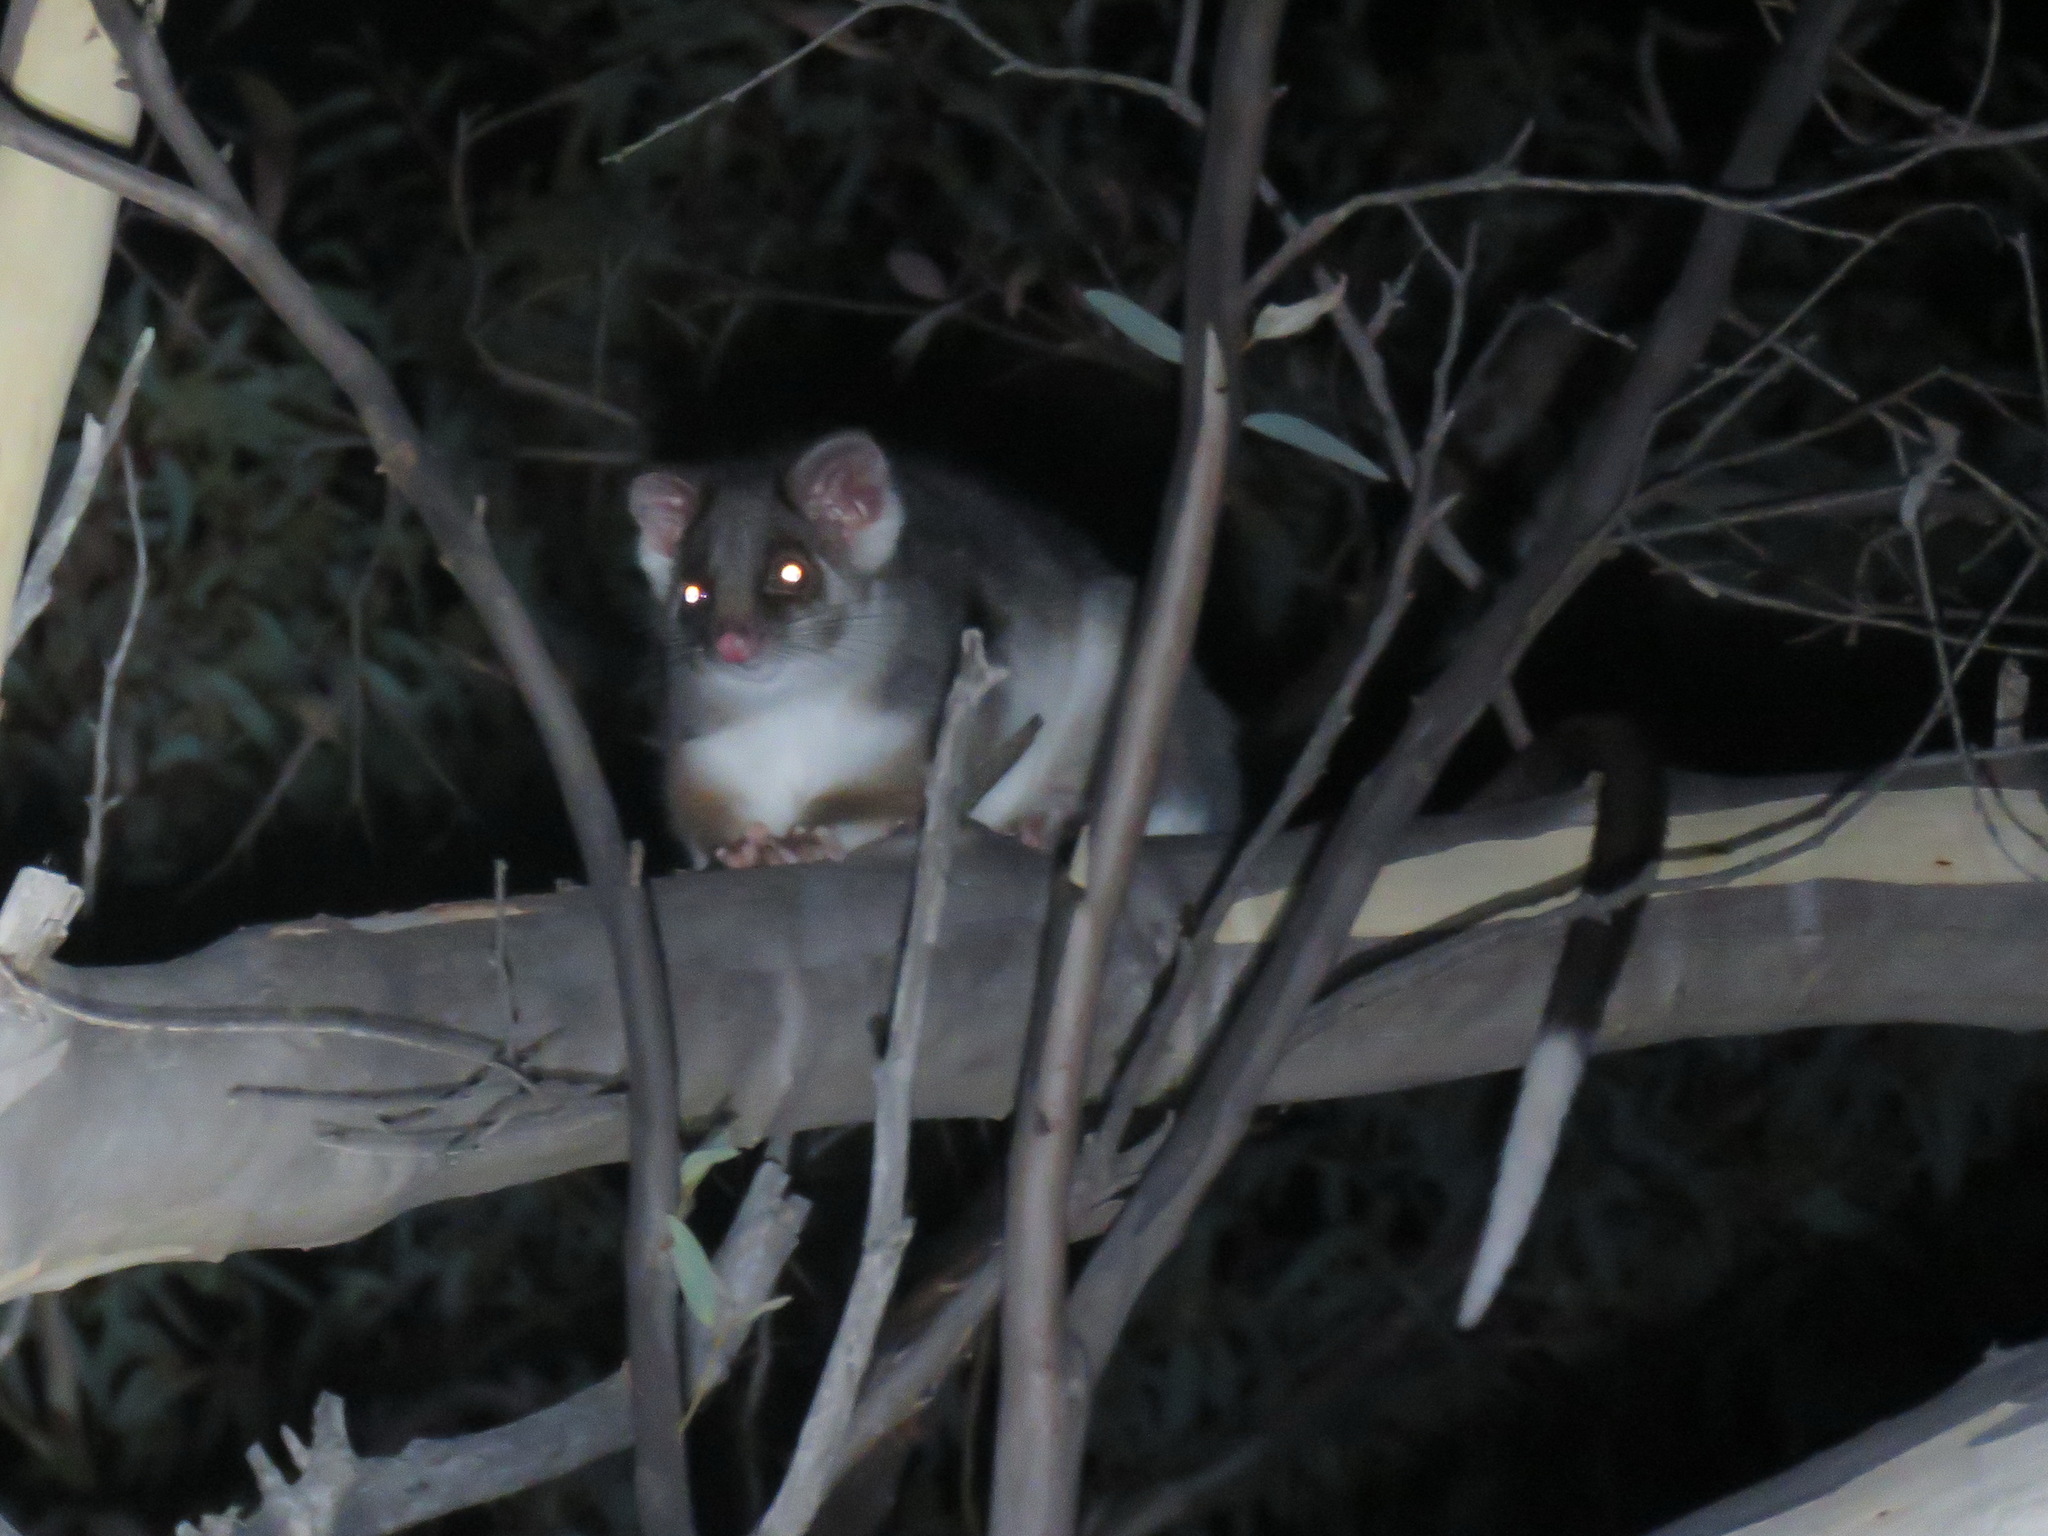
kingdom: Animalia
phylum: Chordata
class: Mammalia
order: Diprotodontia
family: Pseudocheiridae
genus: Pseudocheirus
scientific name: Pseudocheirus peregrinus
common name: Common ringtail possum
